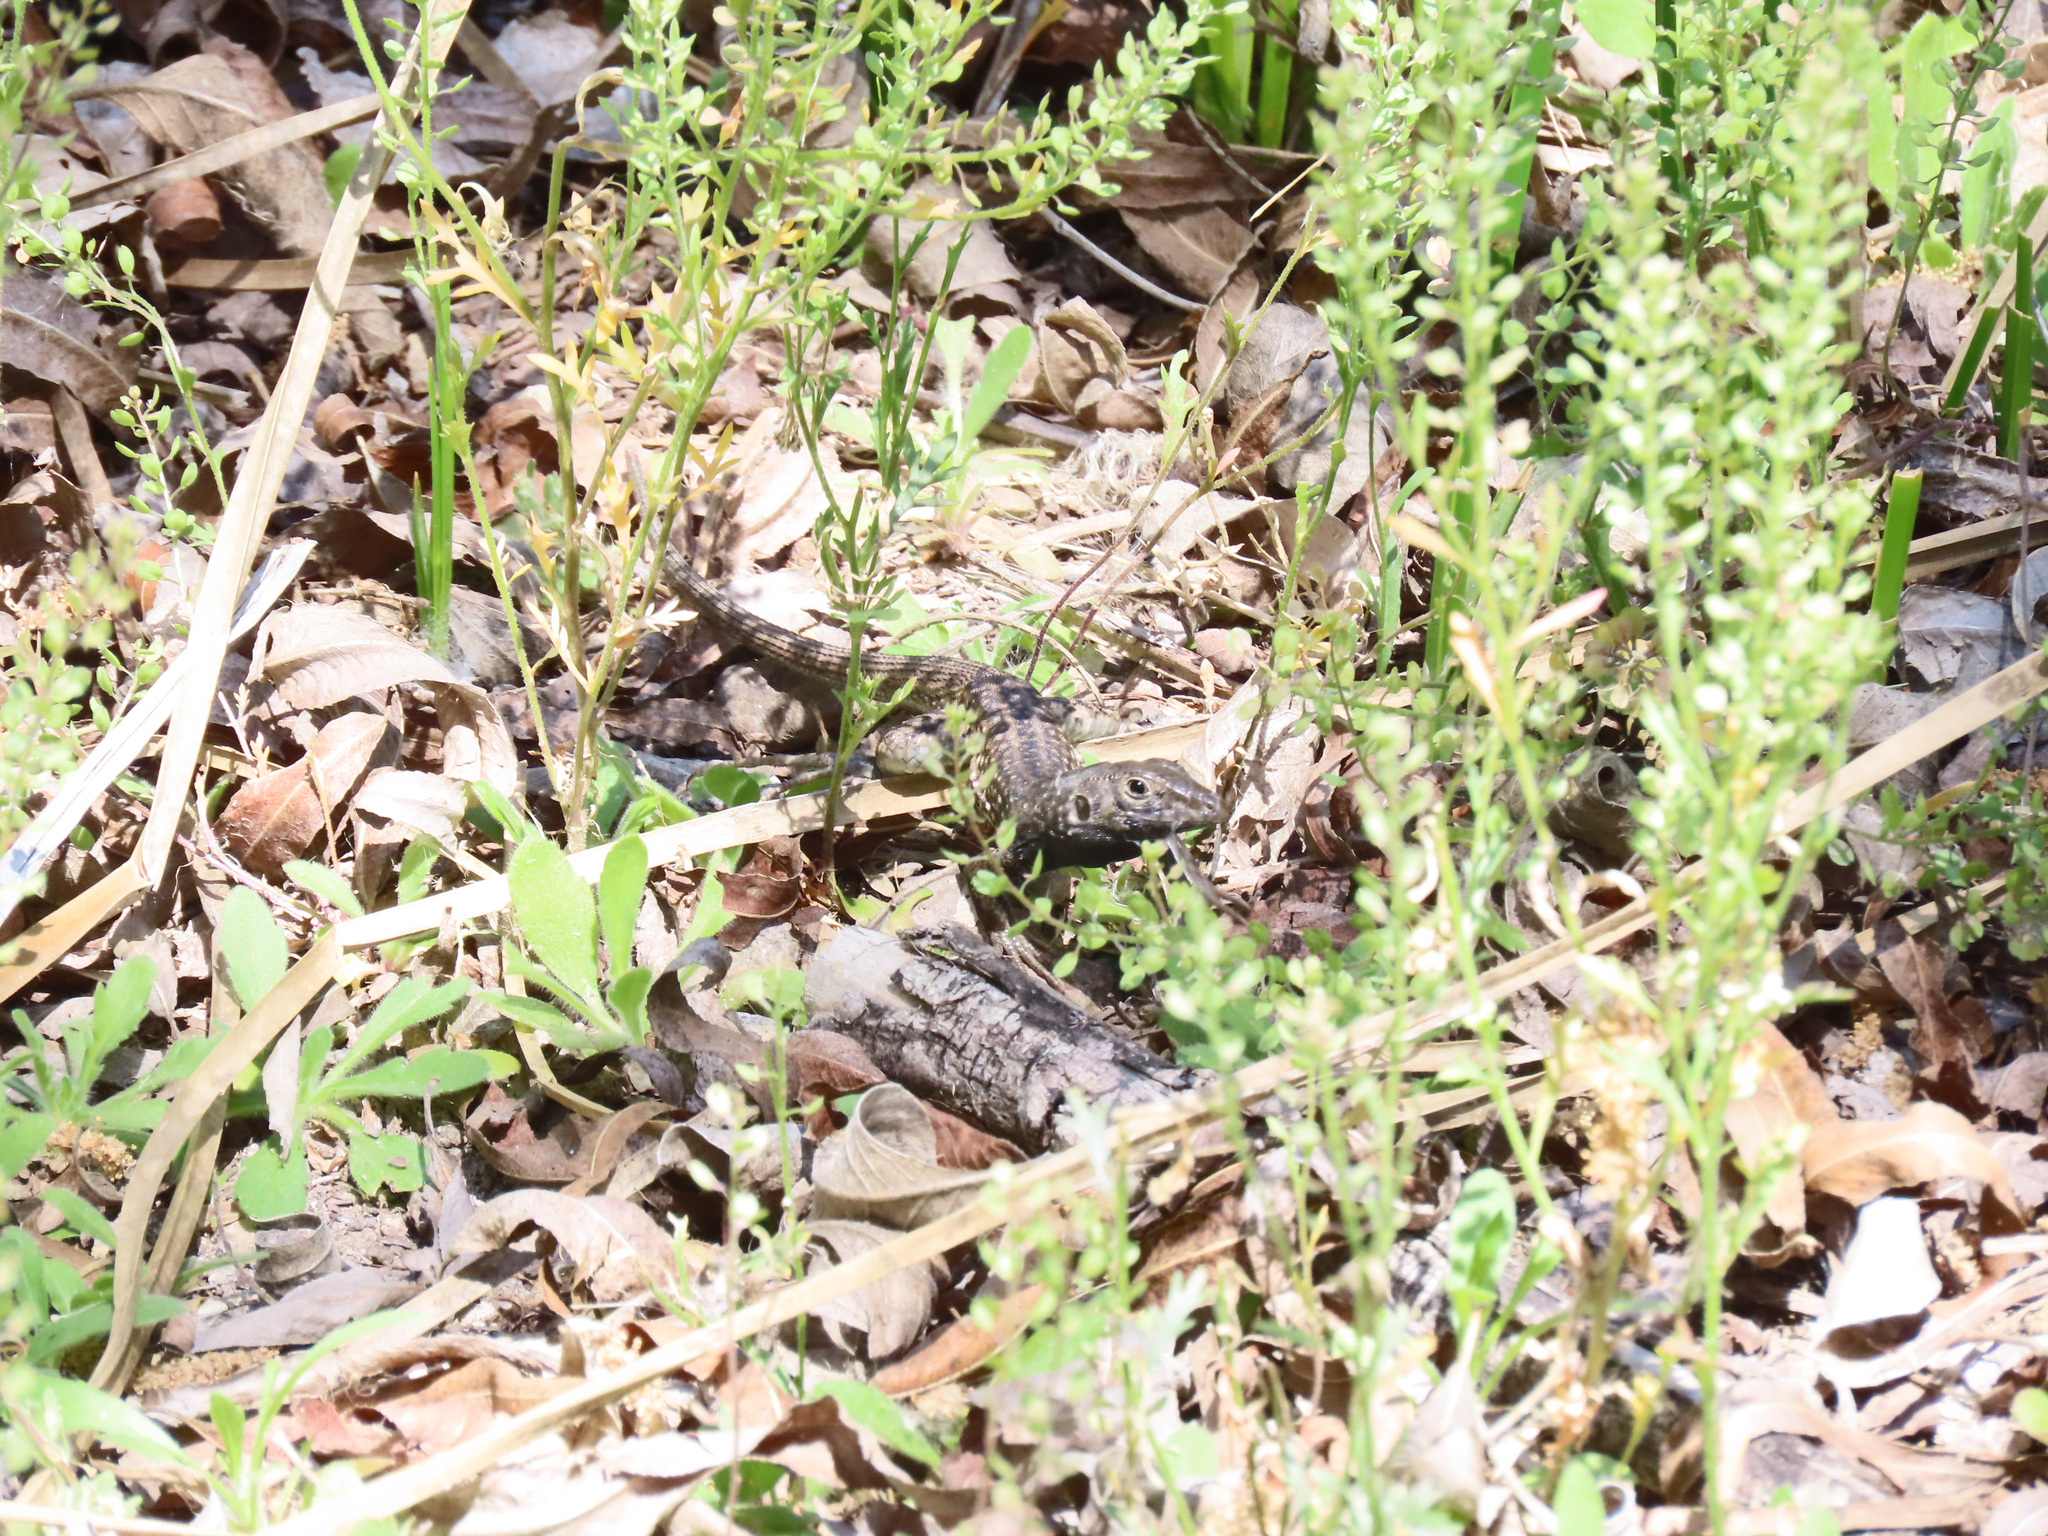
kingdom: Animalia
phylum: Chordata
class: Squamata
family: Teiidae
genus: Aspidoscelis
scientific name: Aspidoscelis tigris
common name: Tiger whiptail
